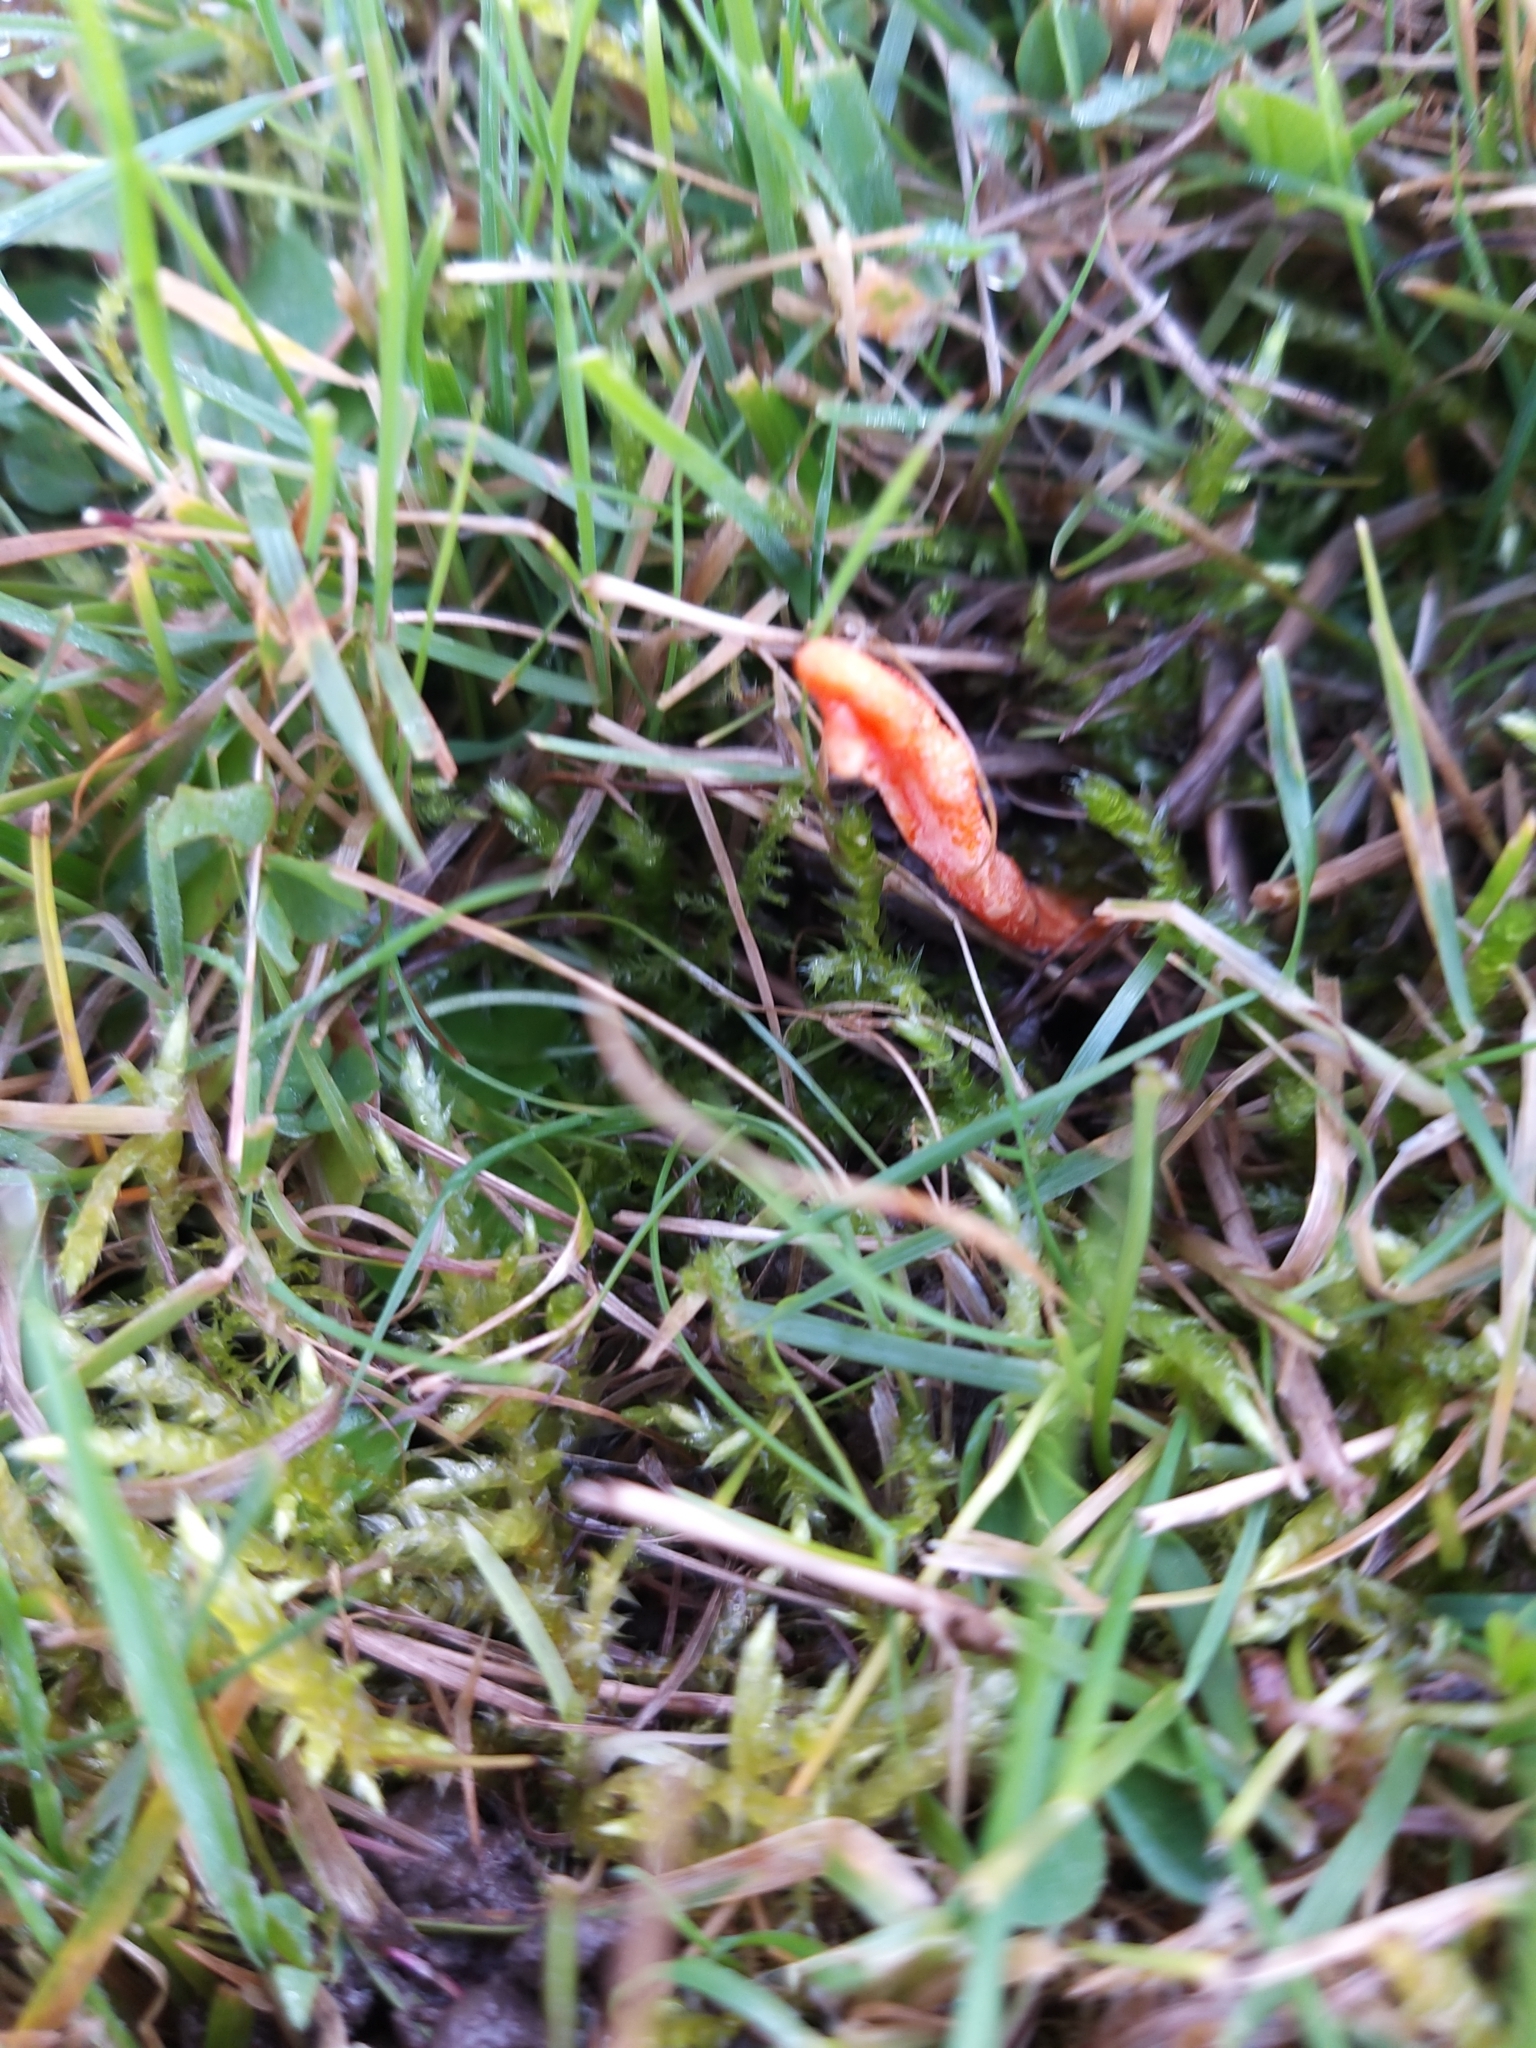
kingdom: Fungi
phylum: Ascomycota
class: Sordariomycetes
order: Hypocreales
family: Cordycipitaceae
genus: Cordyceps
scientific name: Cordyceps militaris
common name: Scarlet caterpillar fungus
